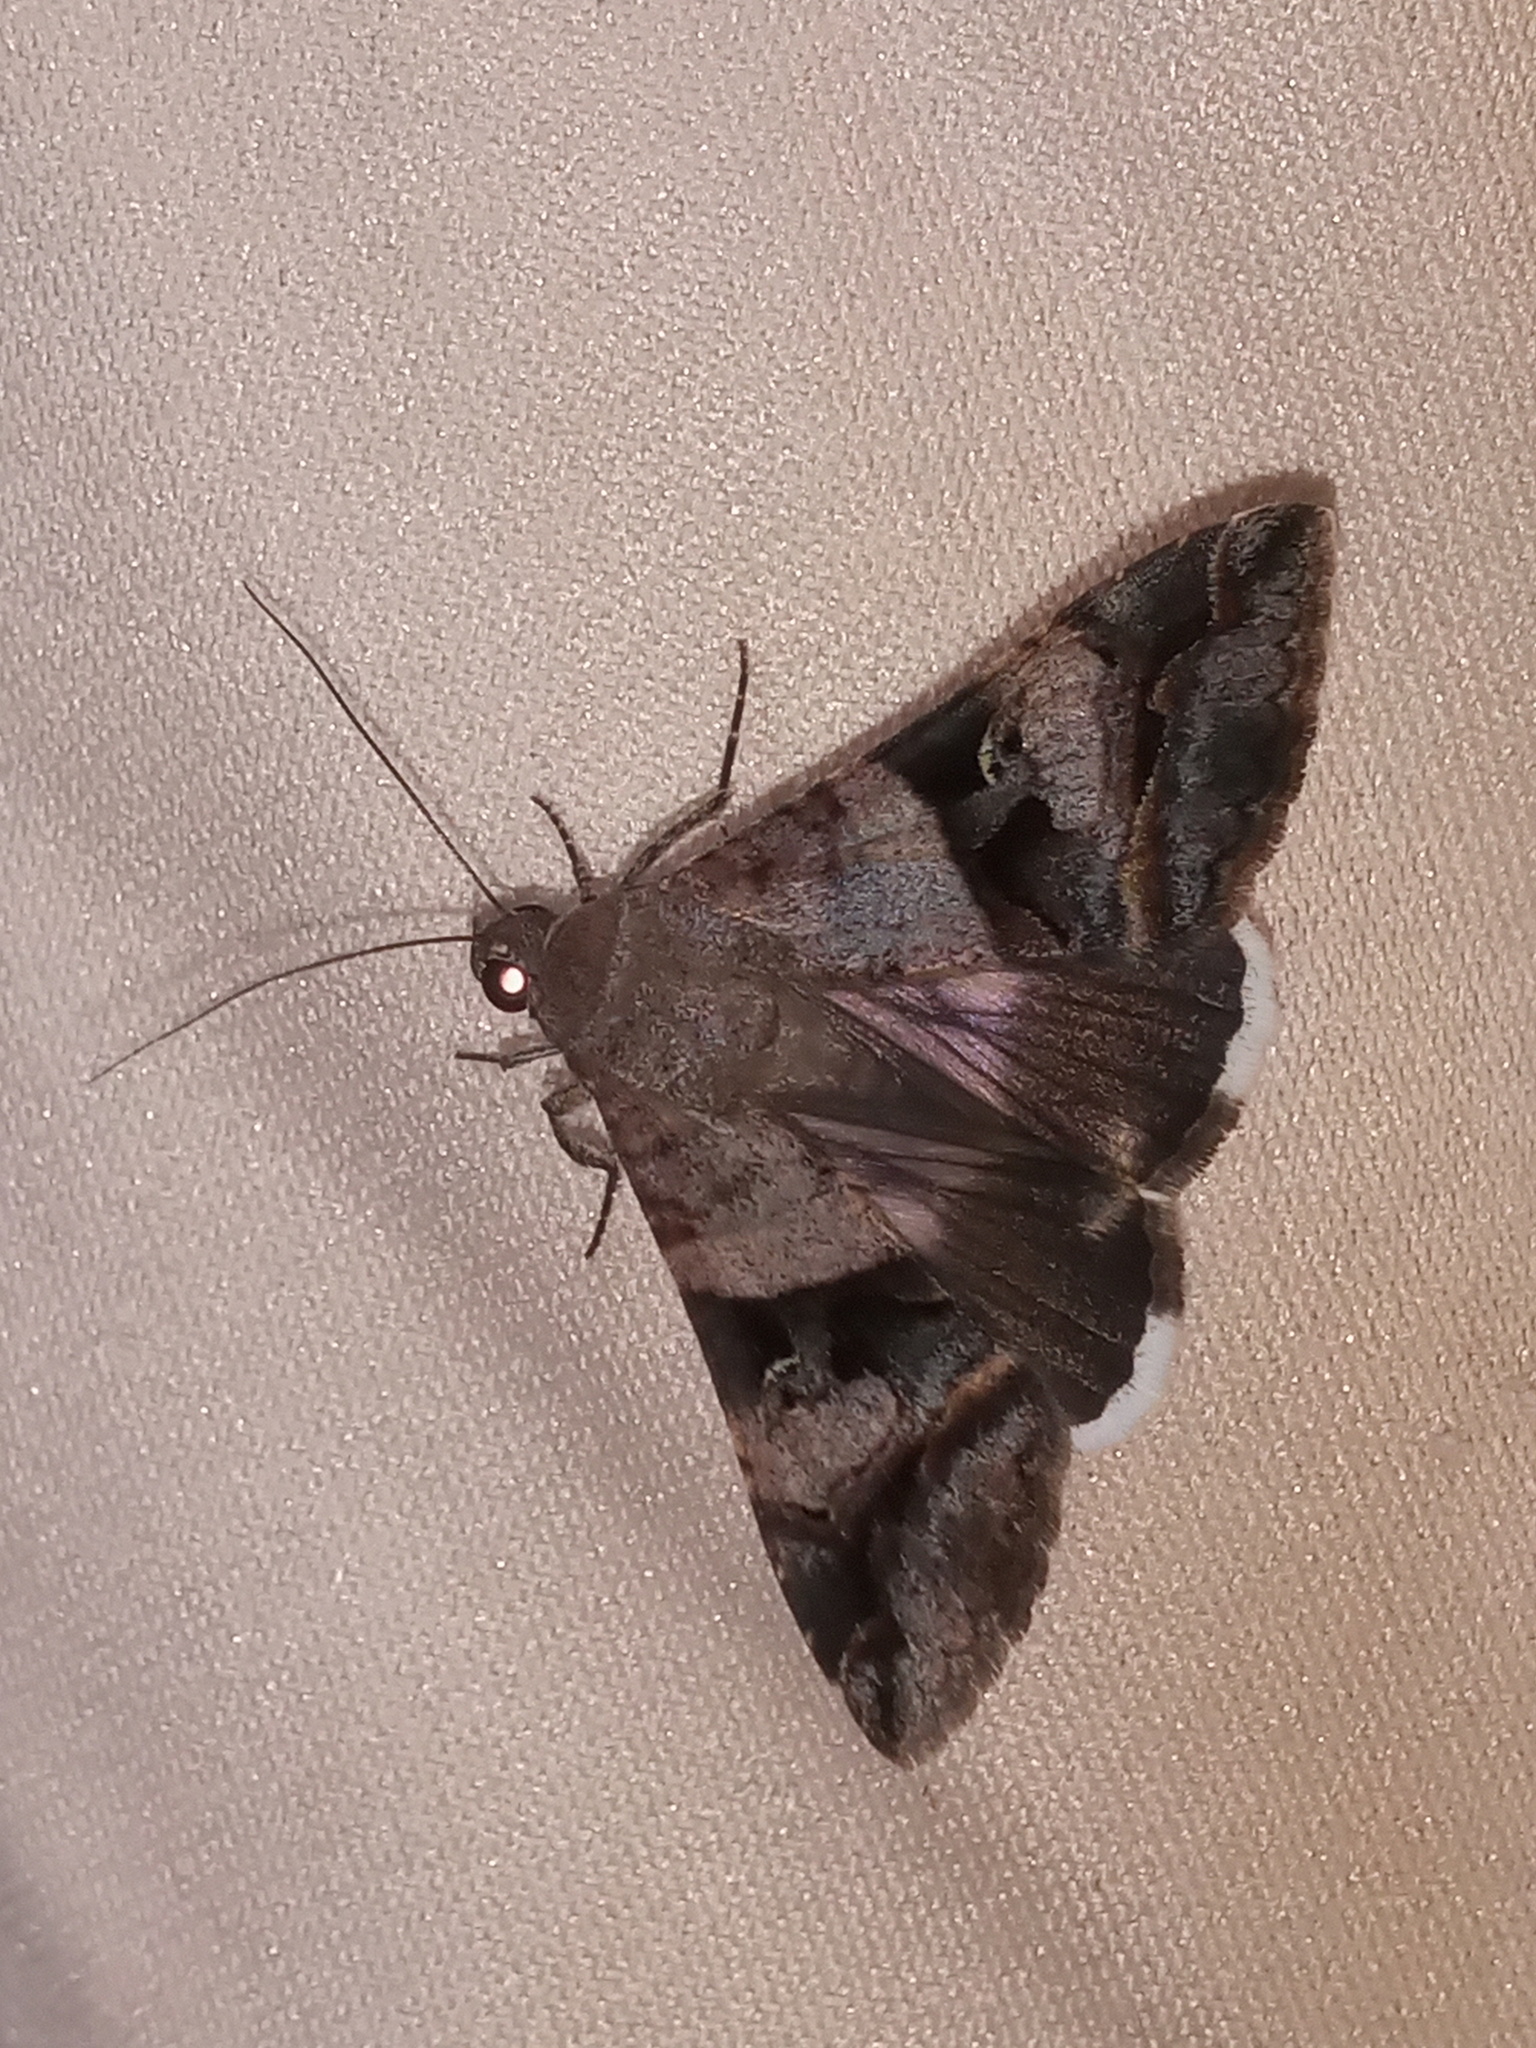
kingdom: Animalia
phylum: Arthropoda
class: Insecta
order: Lepidoptera
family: Erebidae
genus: Melipotis
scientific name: Melipotis perpendicularis
